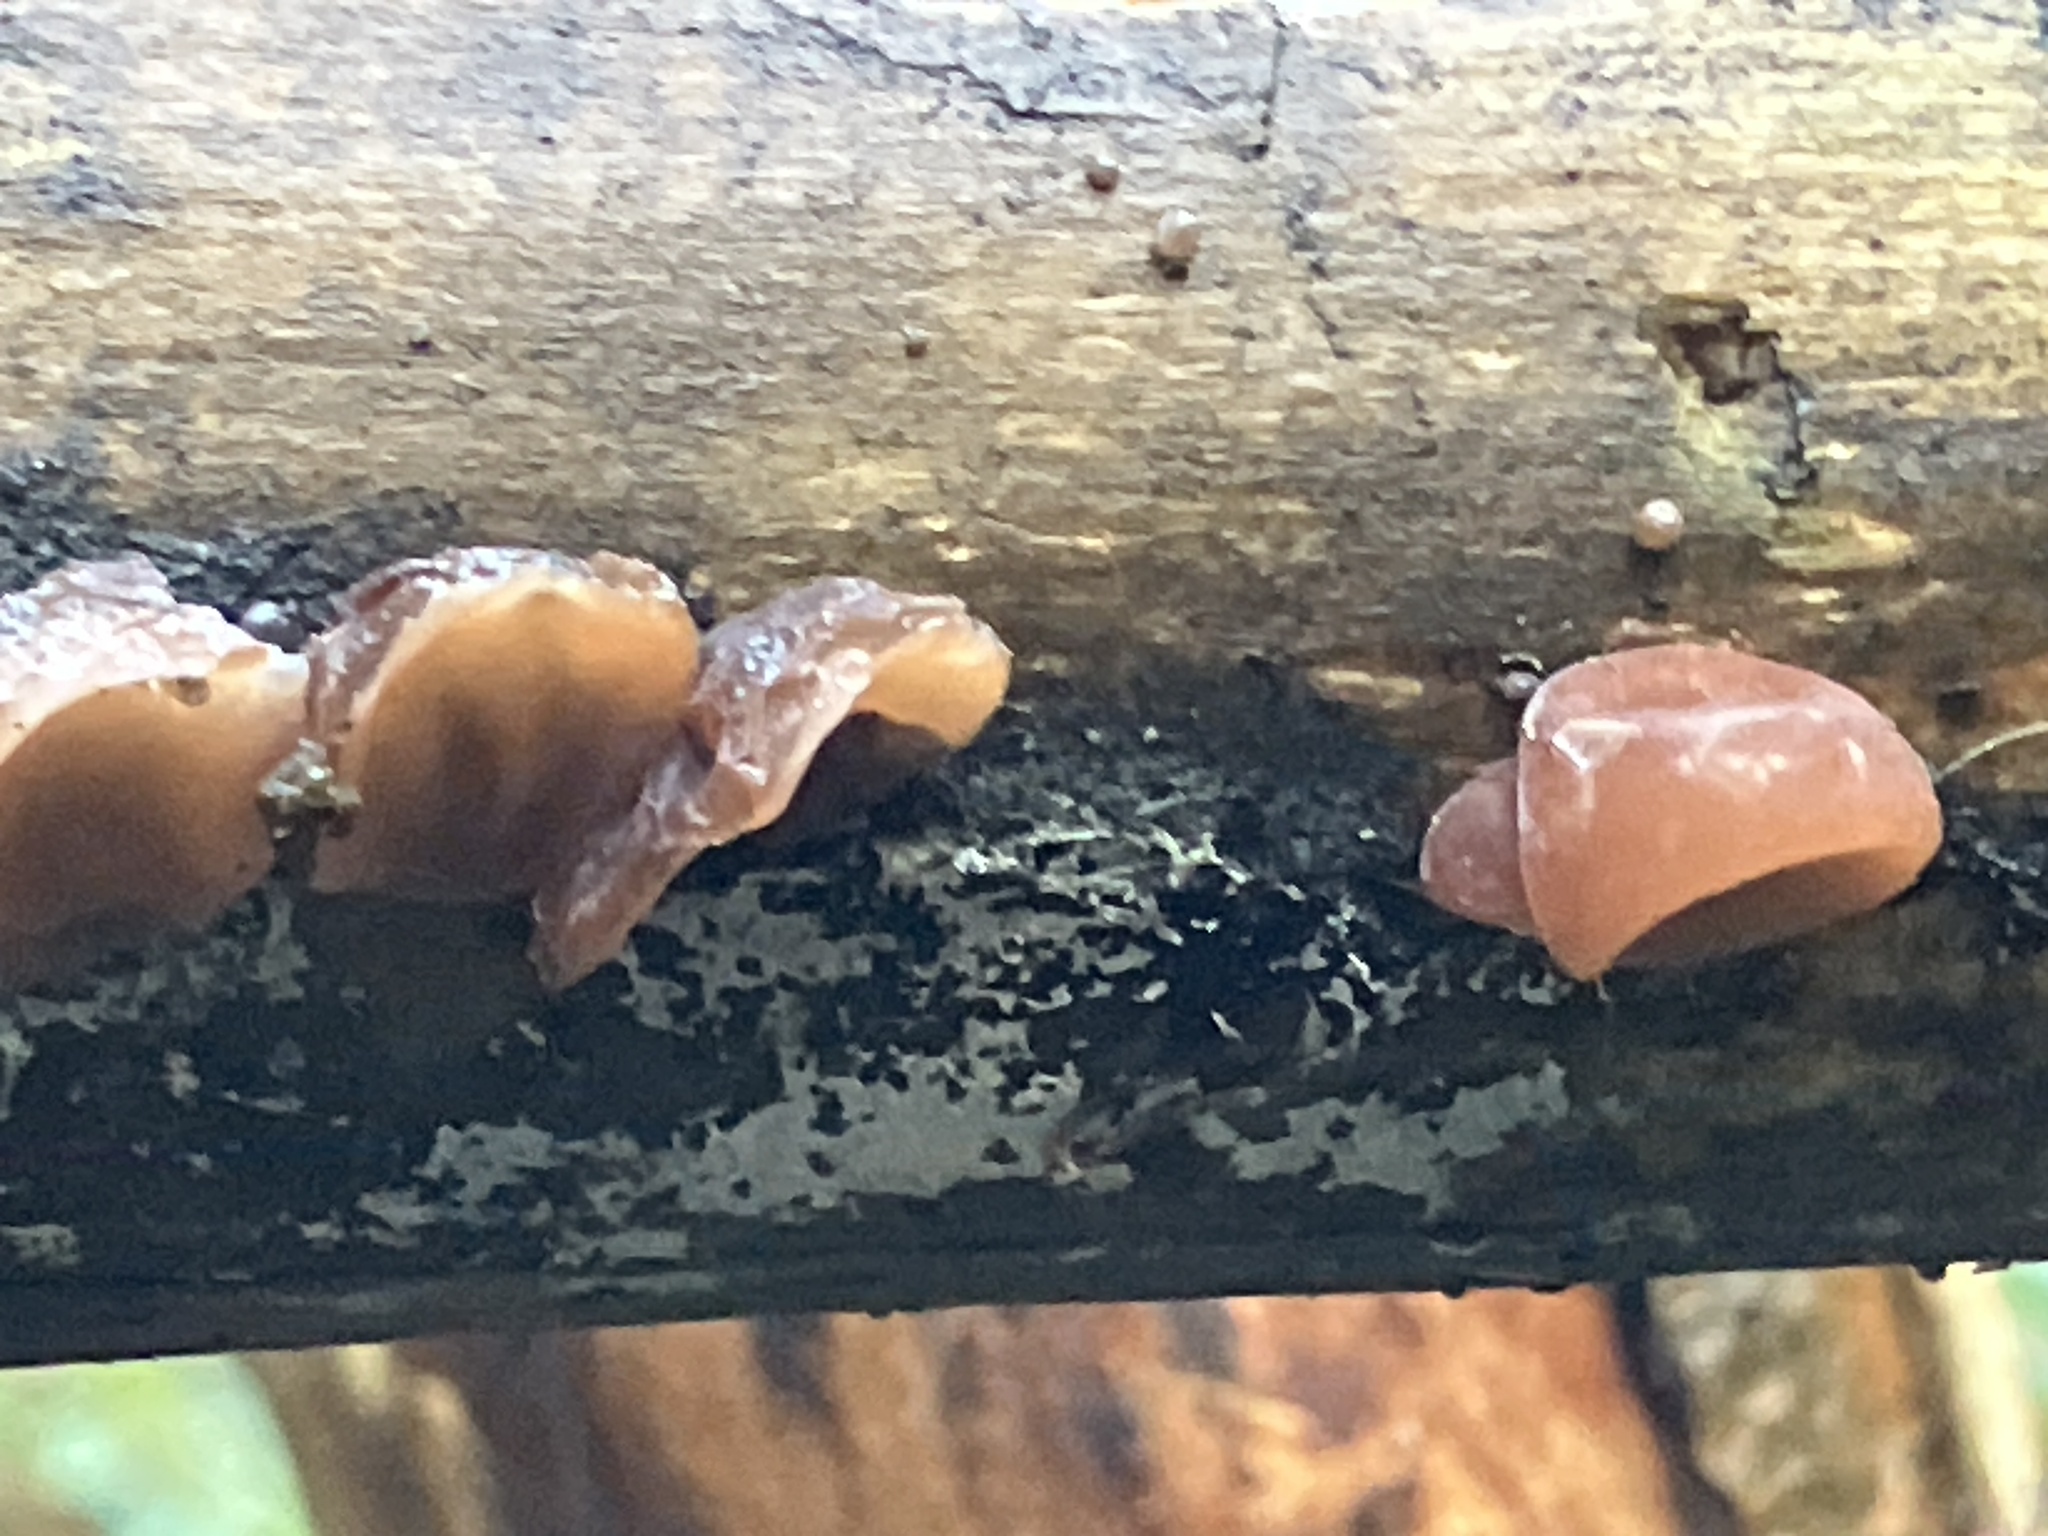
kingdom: Fungi
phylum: Basidiomycota
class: Agaricomycetes
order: Auriculariales
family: Auriculariaceae
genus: Auricularia
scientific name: Auricularia auricula-judae
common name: Jelly ear
